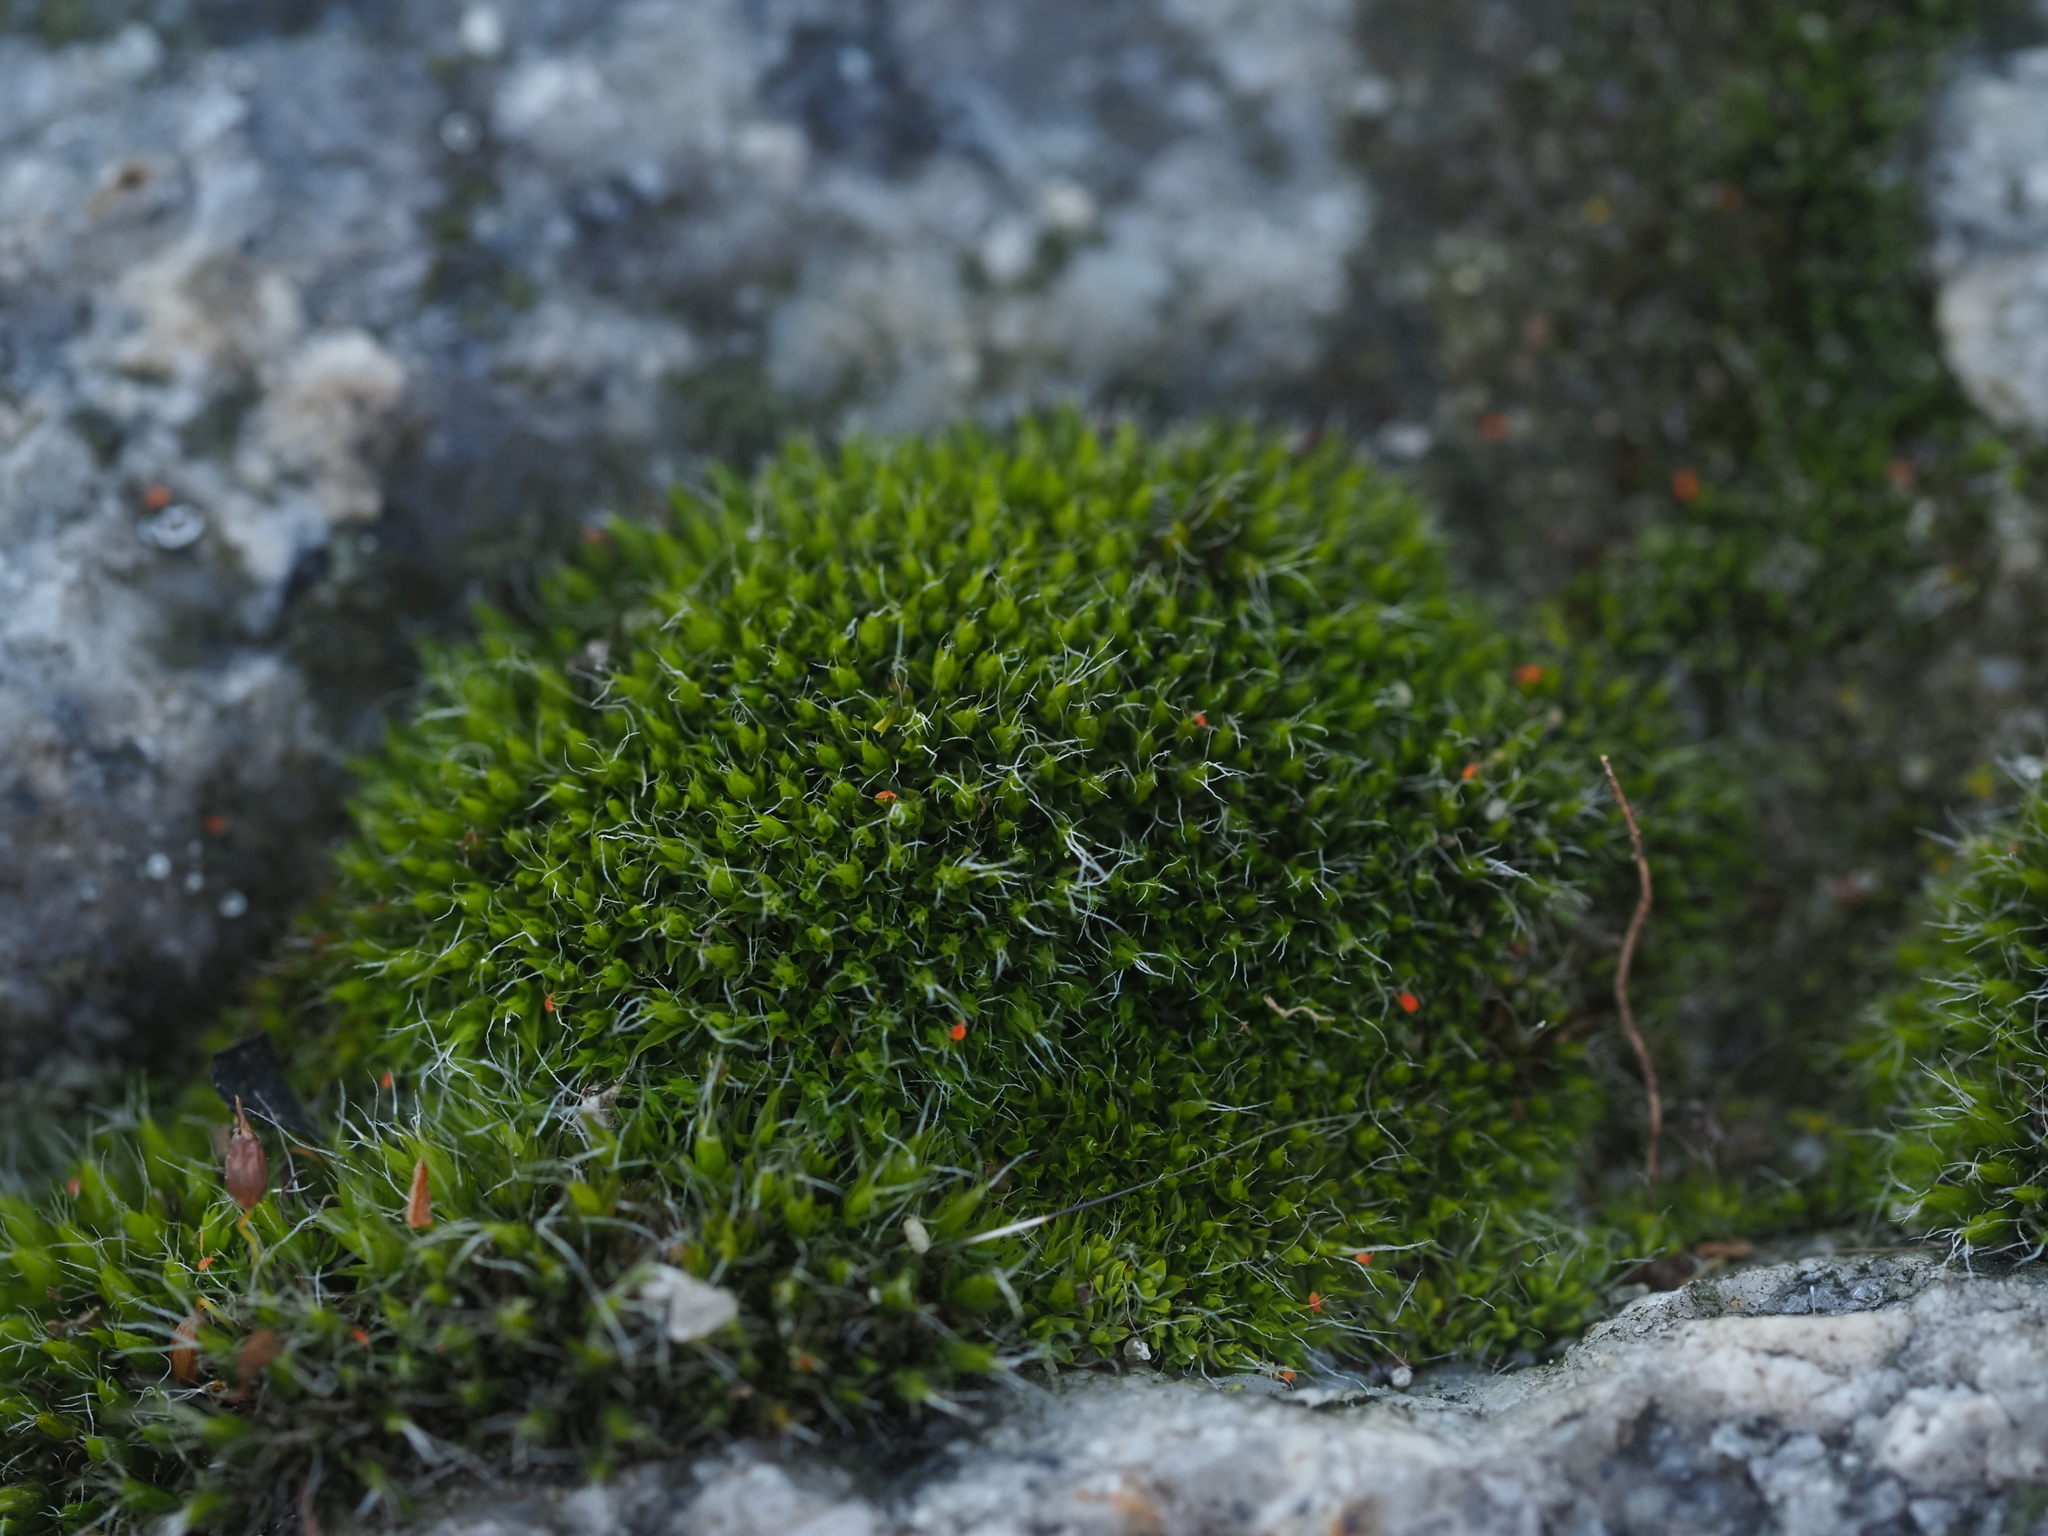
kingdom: Plantae
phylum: Bryophyta
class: Bryopsida
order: Grimmiales
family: Grimmiaceae
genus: Grimmia
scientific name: Grimmia pulvinata
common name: Grey-cushioned grimmia
